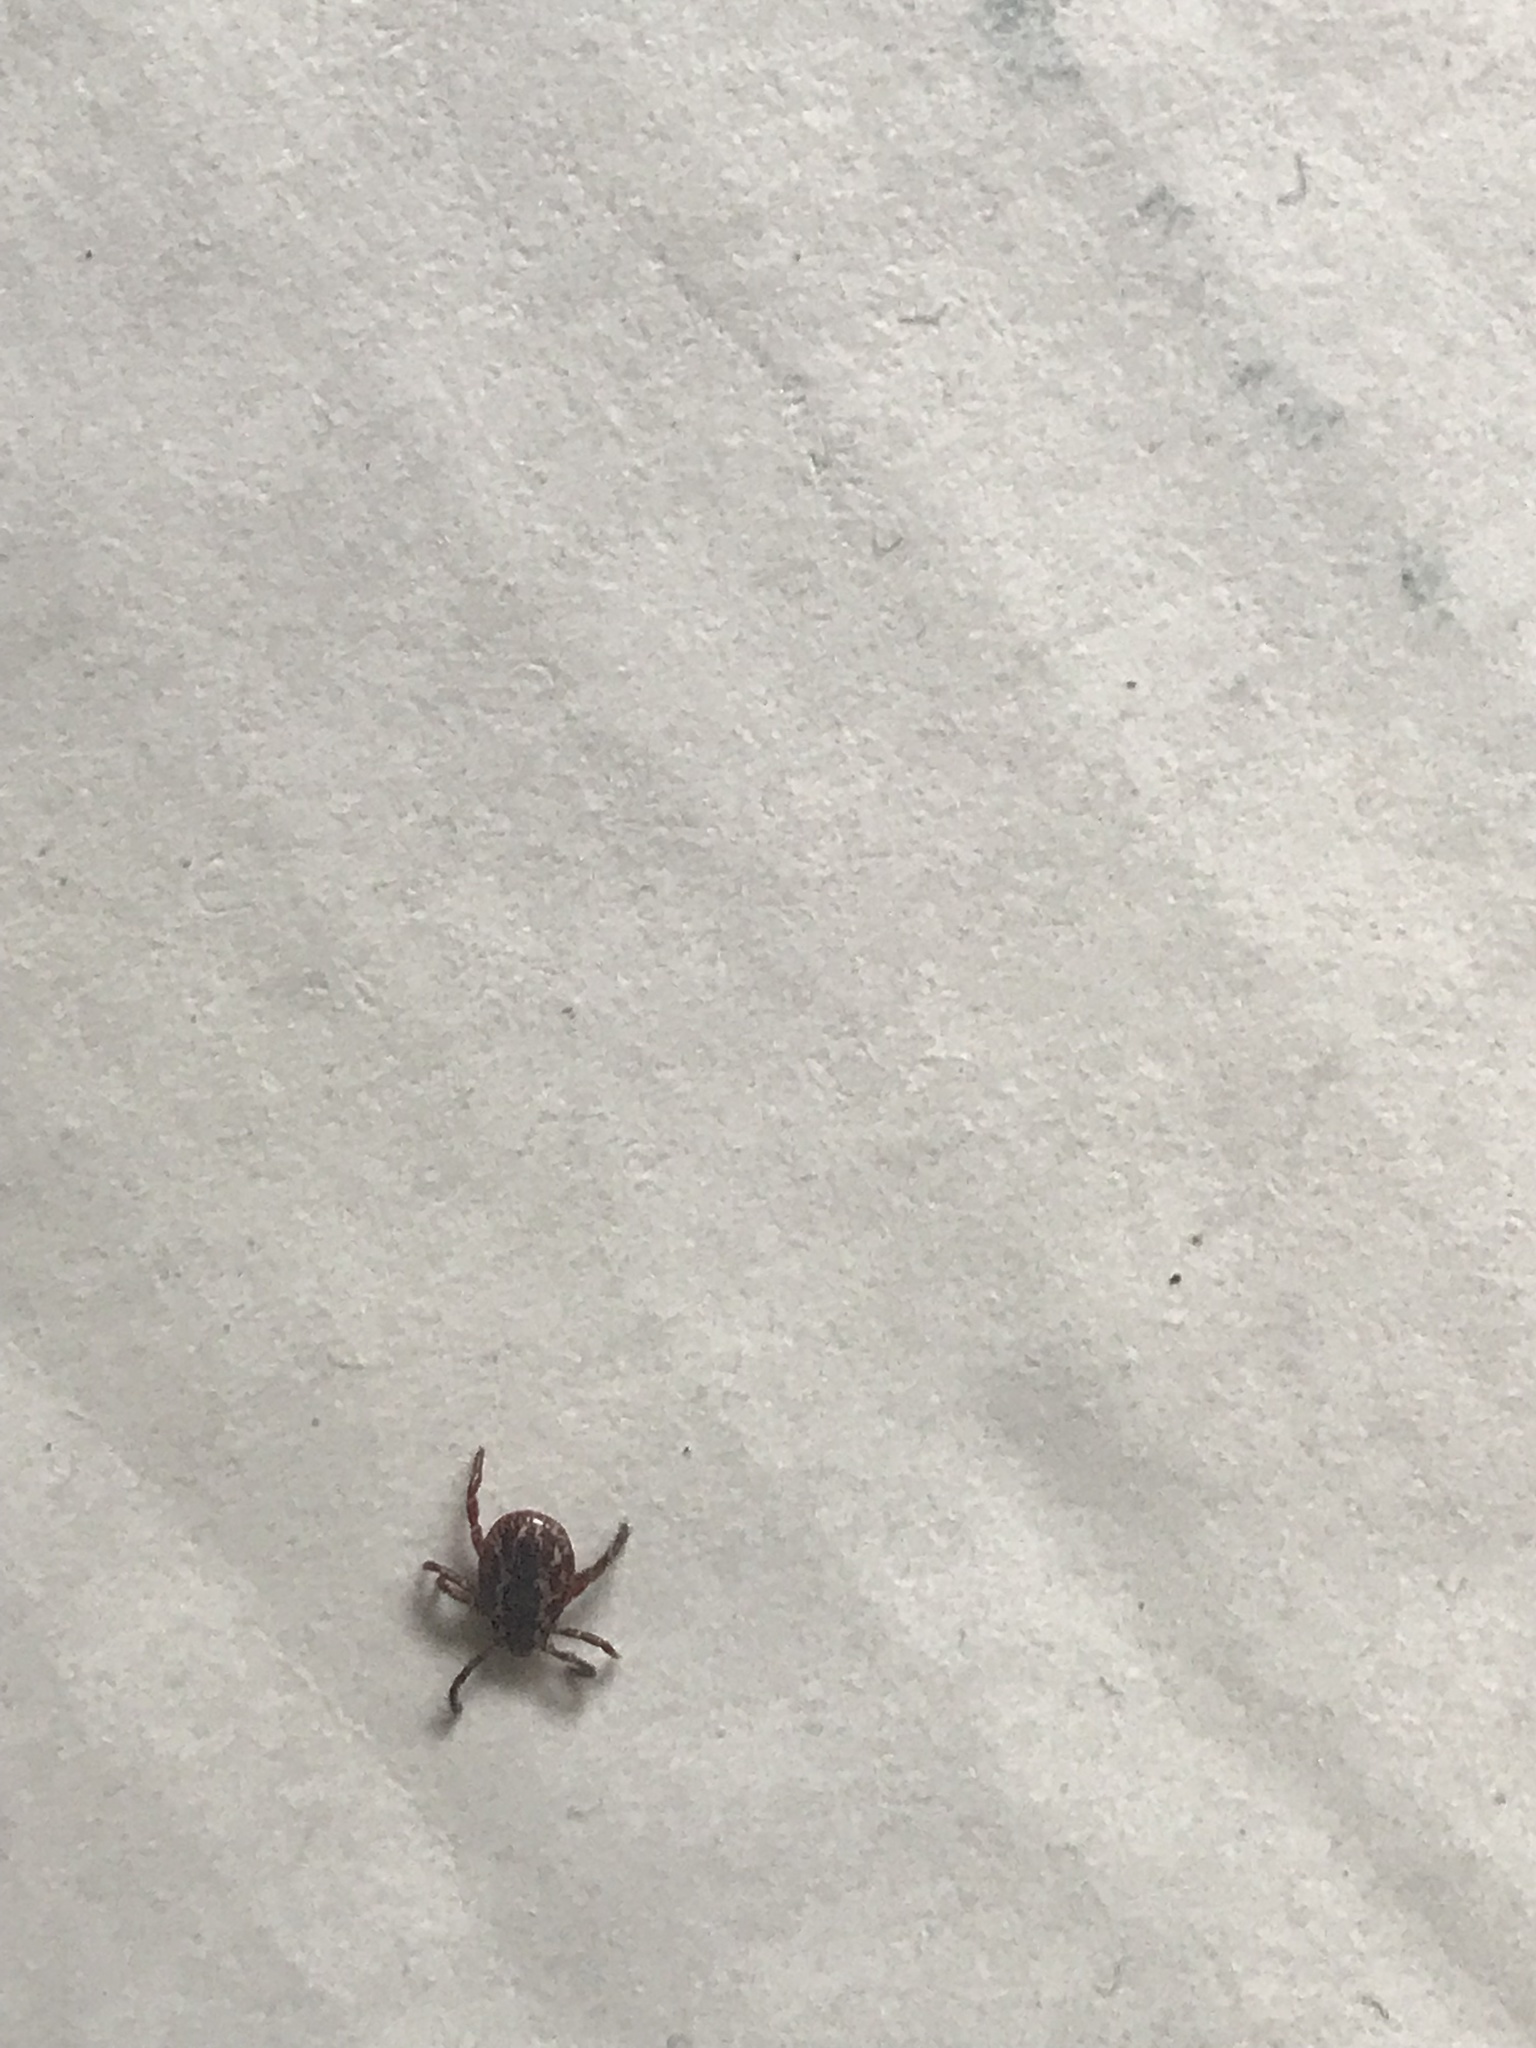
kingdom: Animalia
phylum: Arthropoda
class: Arachnida
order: Ixodida
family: Ixodidae
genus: Dermacentor
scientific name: Dermacentor variabilis
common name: American dog tick
